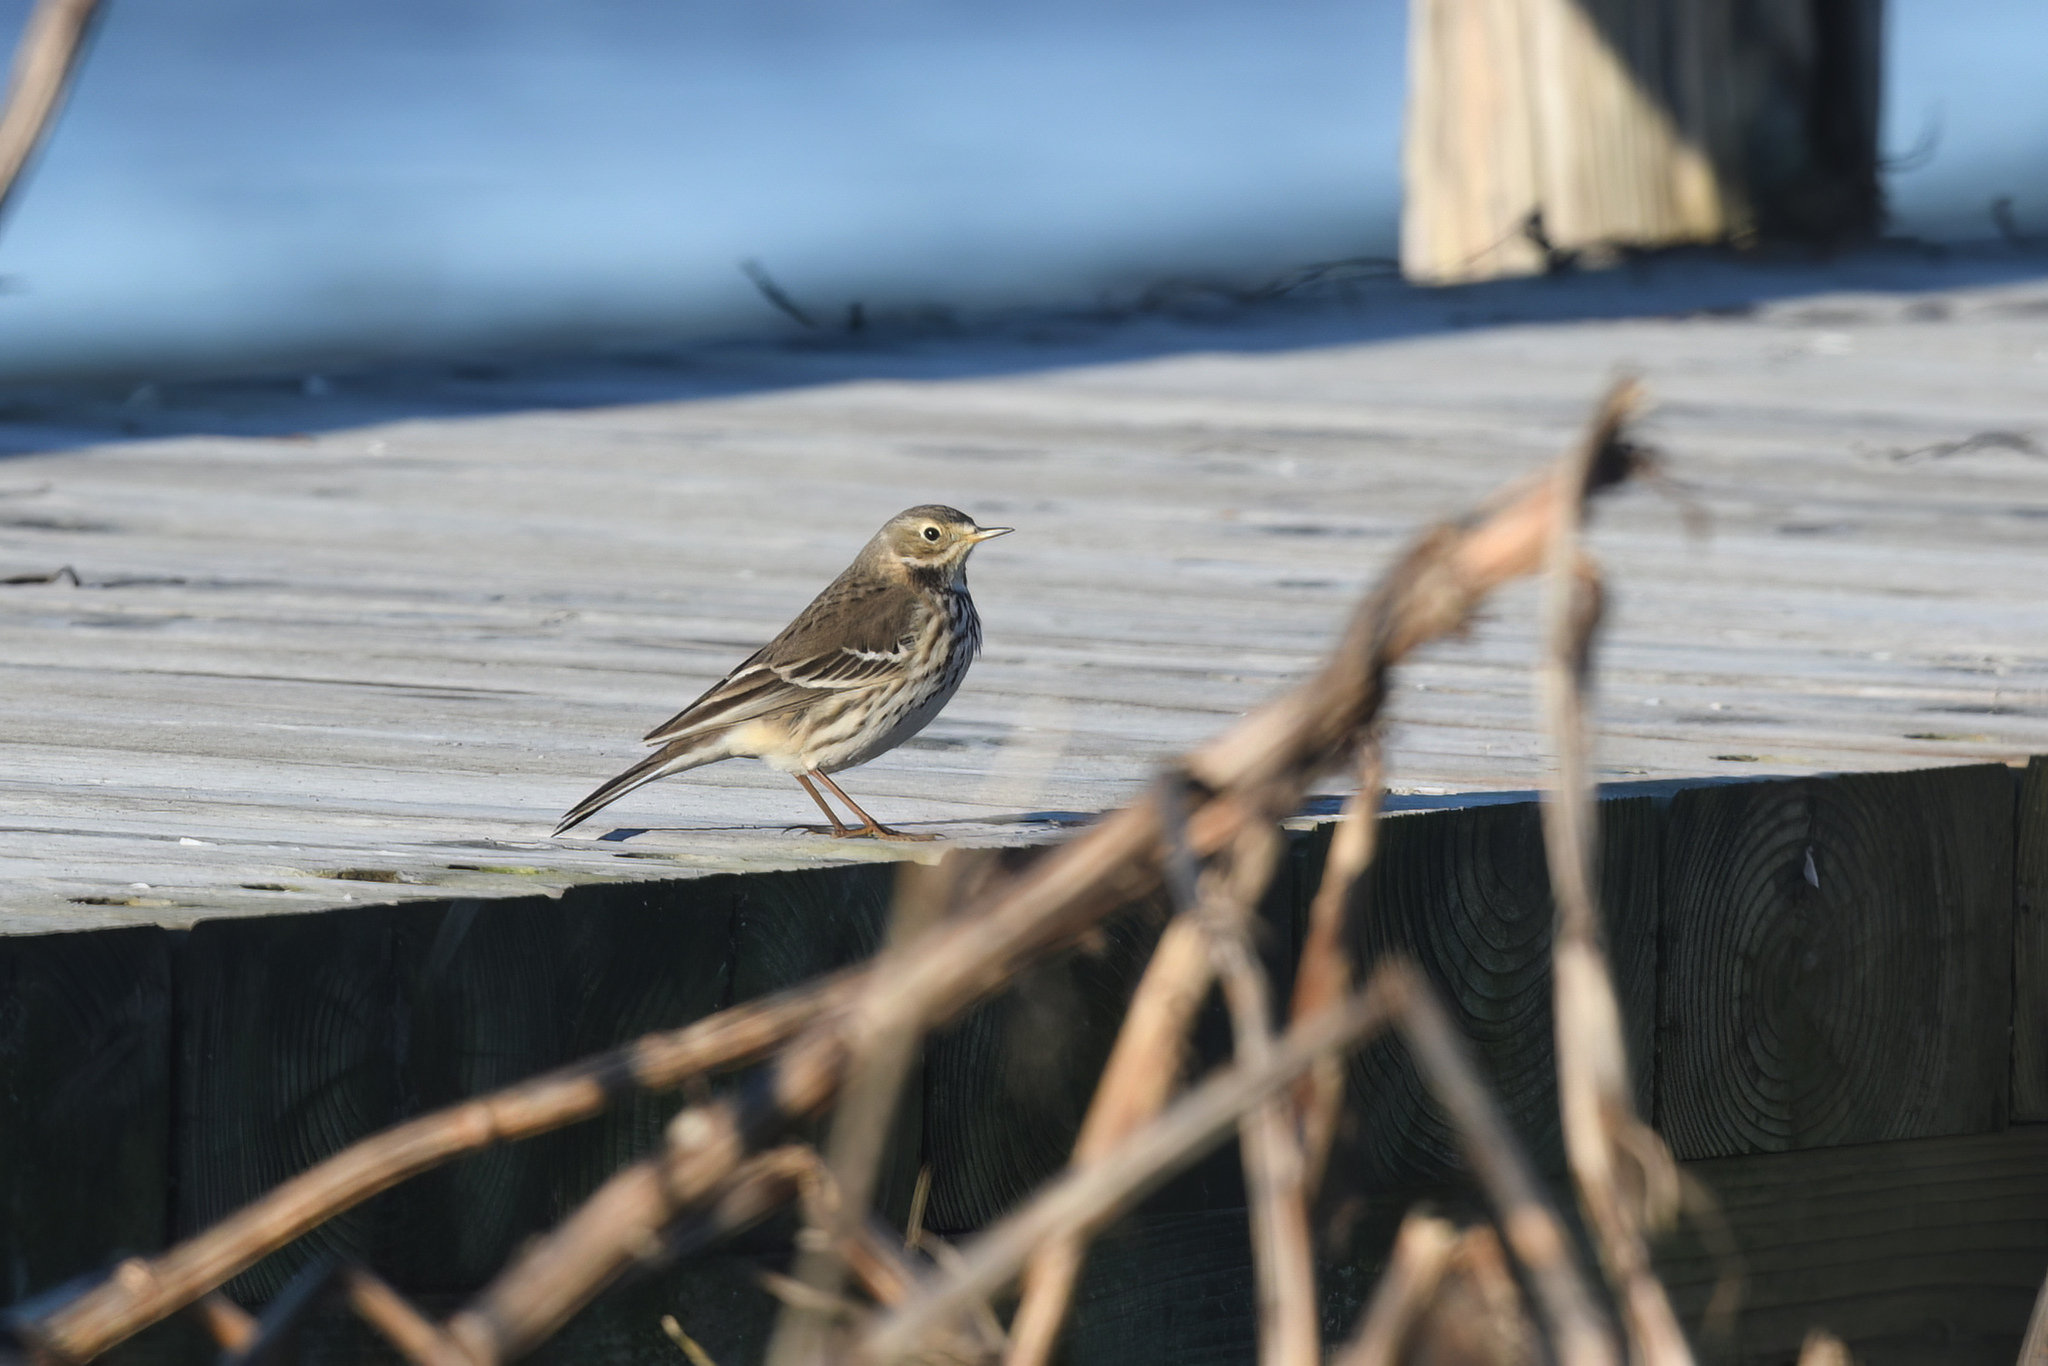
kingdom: Animalia
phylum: Chordata
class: Aves
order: Passeriformes
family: Motacillidae
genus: Anthus
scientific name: Anthus rubescens
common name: Buff-bellied pipit
